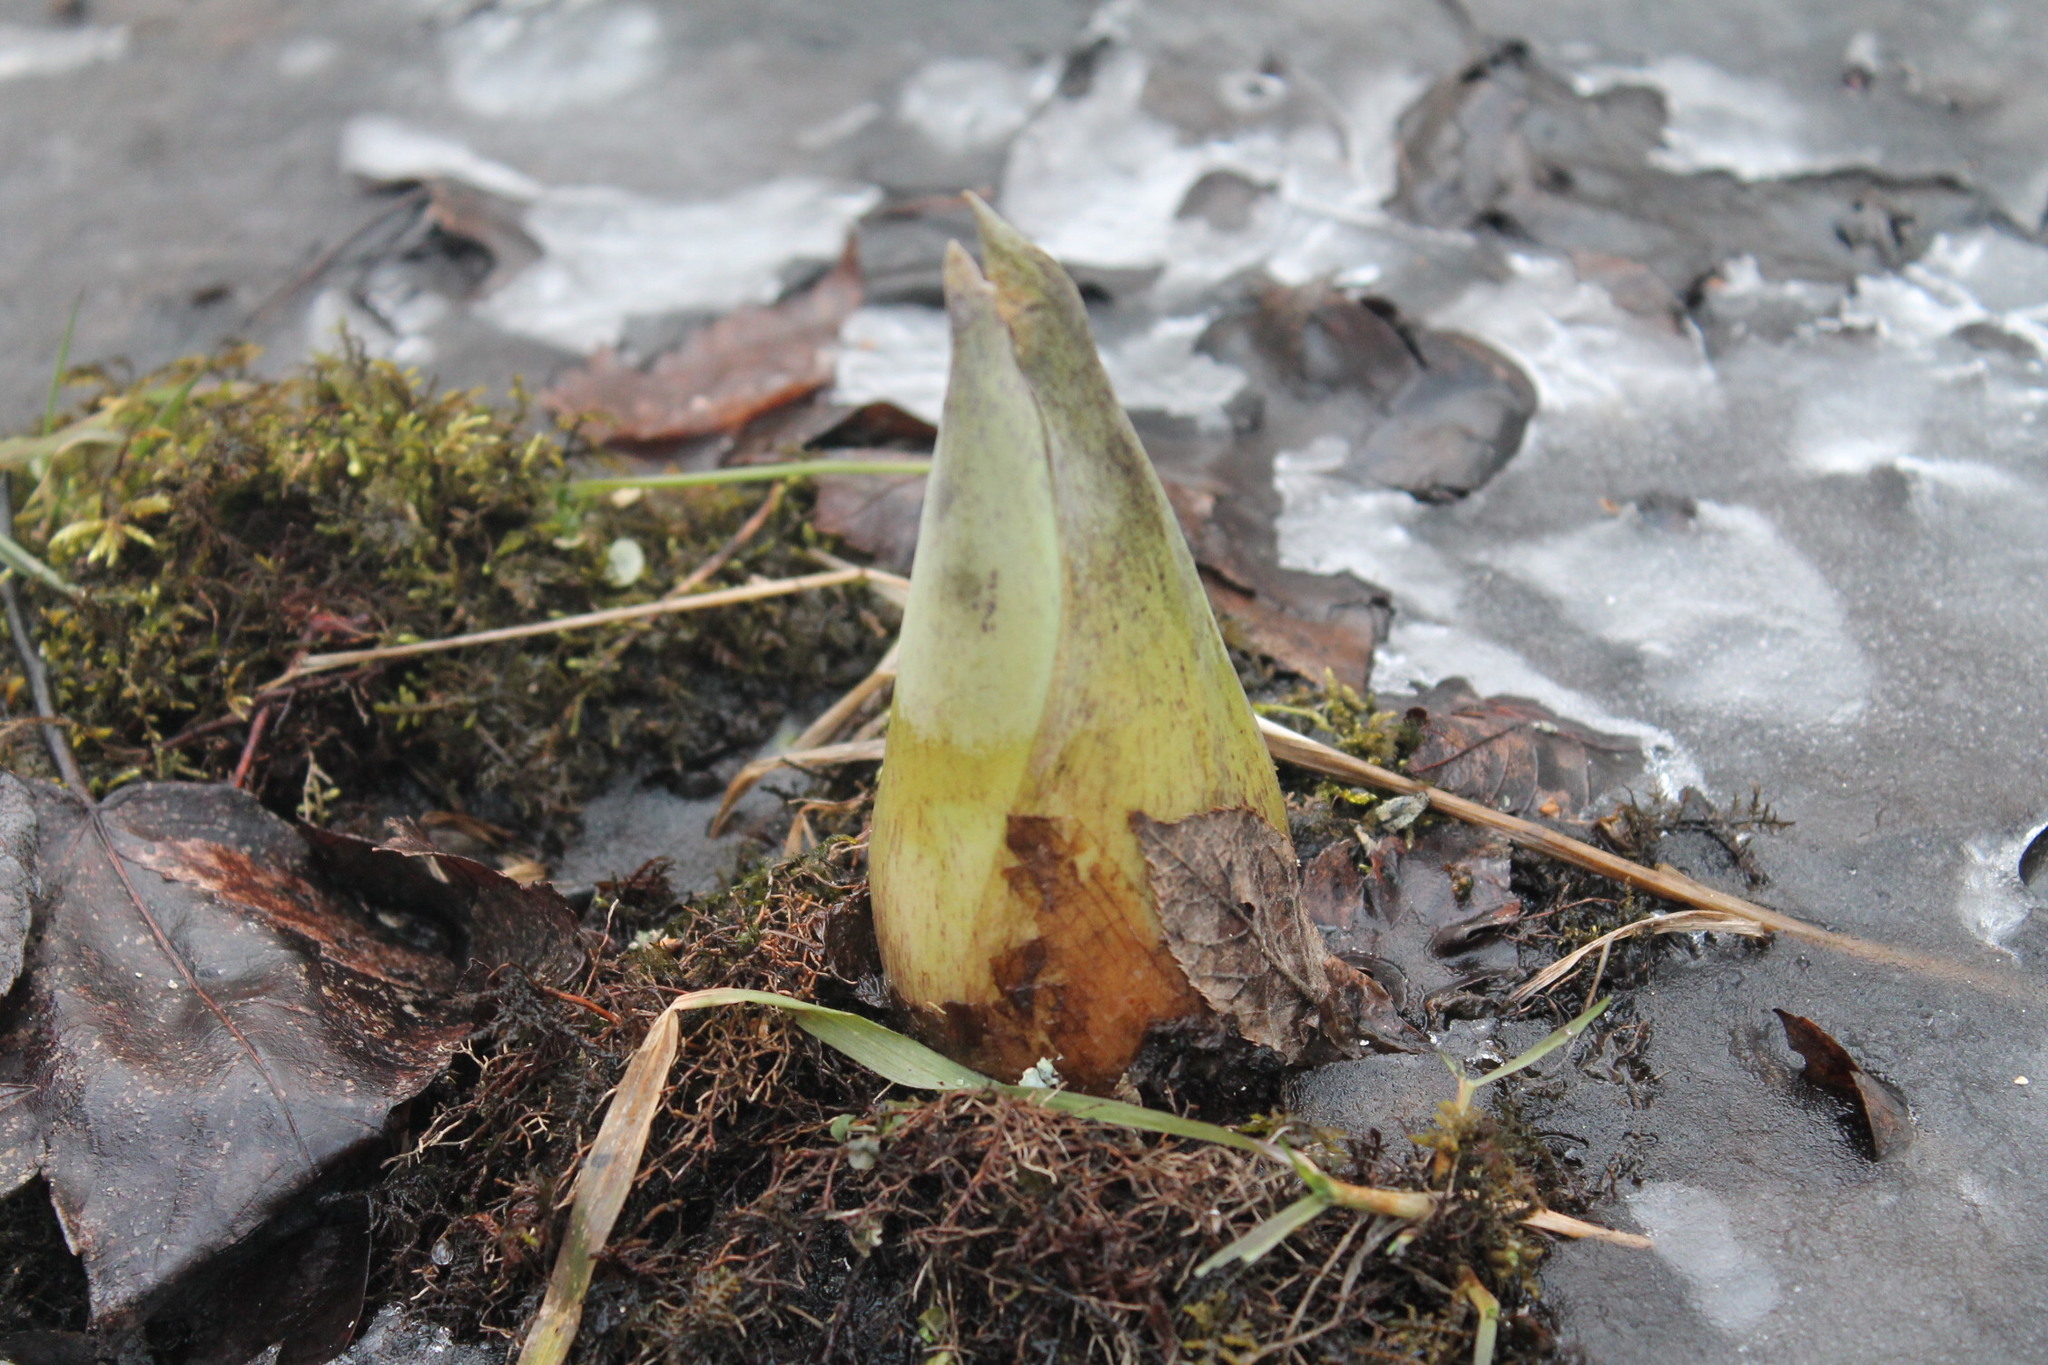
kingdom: Plantae
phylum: Tracheophyta
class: Liliopsida
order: Alismatales
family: Araceae
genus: Symplocarpus
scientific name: Symplocarpus foetidus
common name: Eastern skunk cabbage
